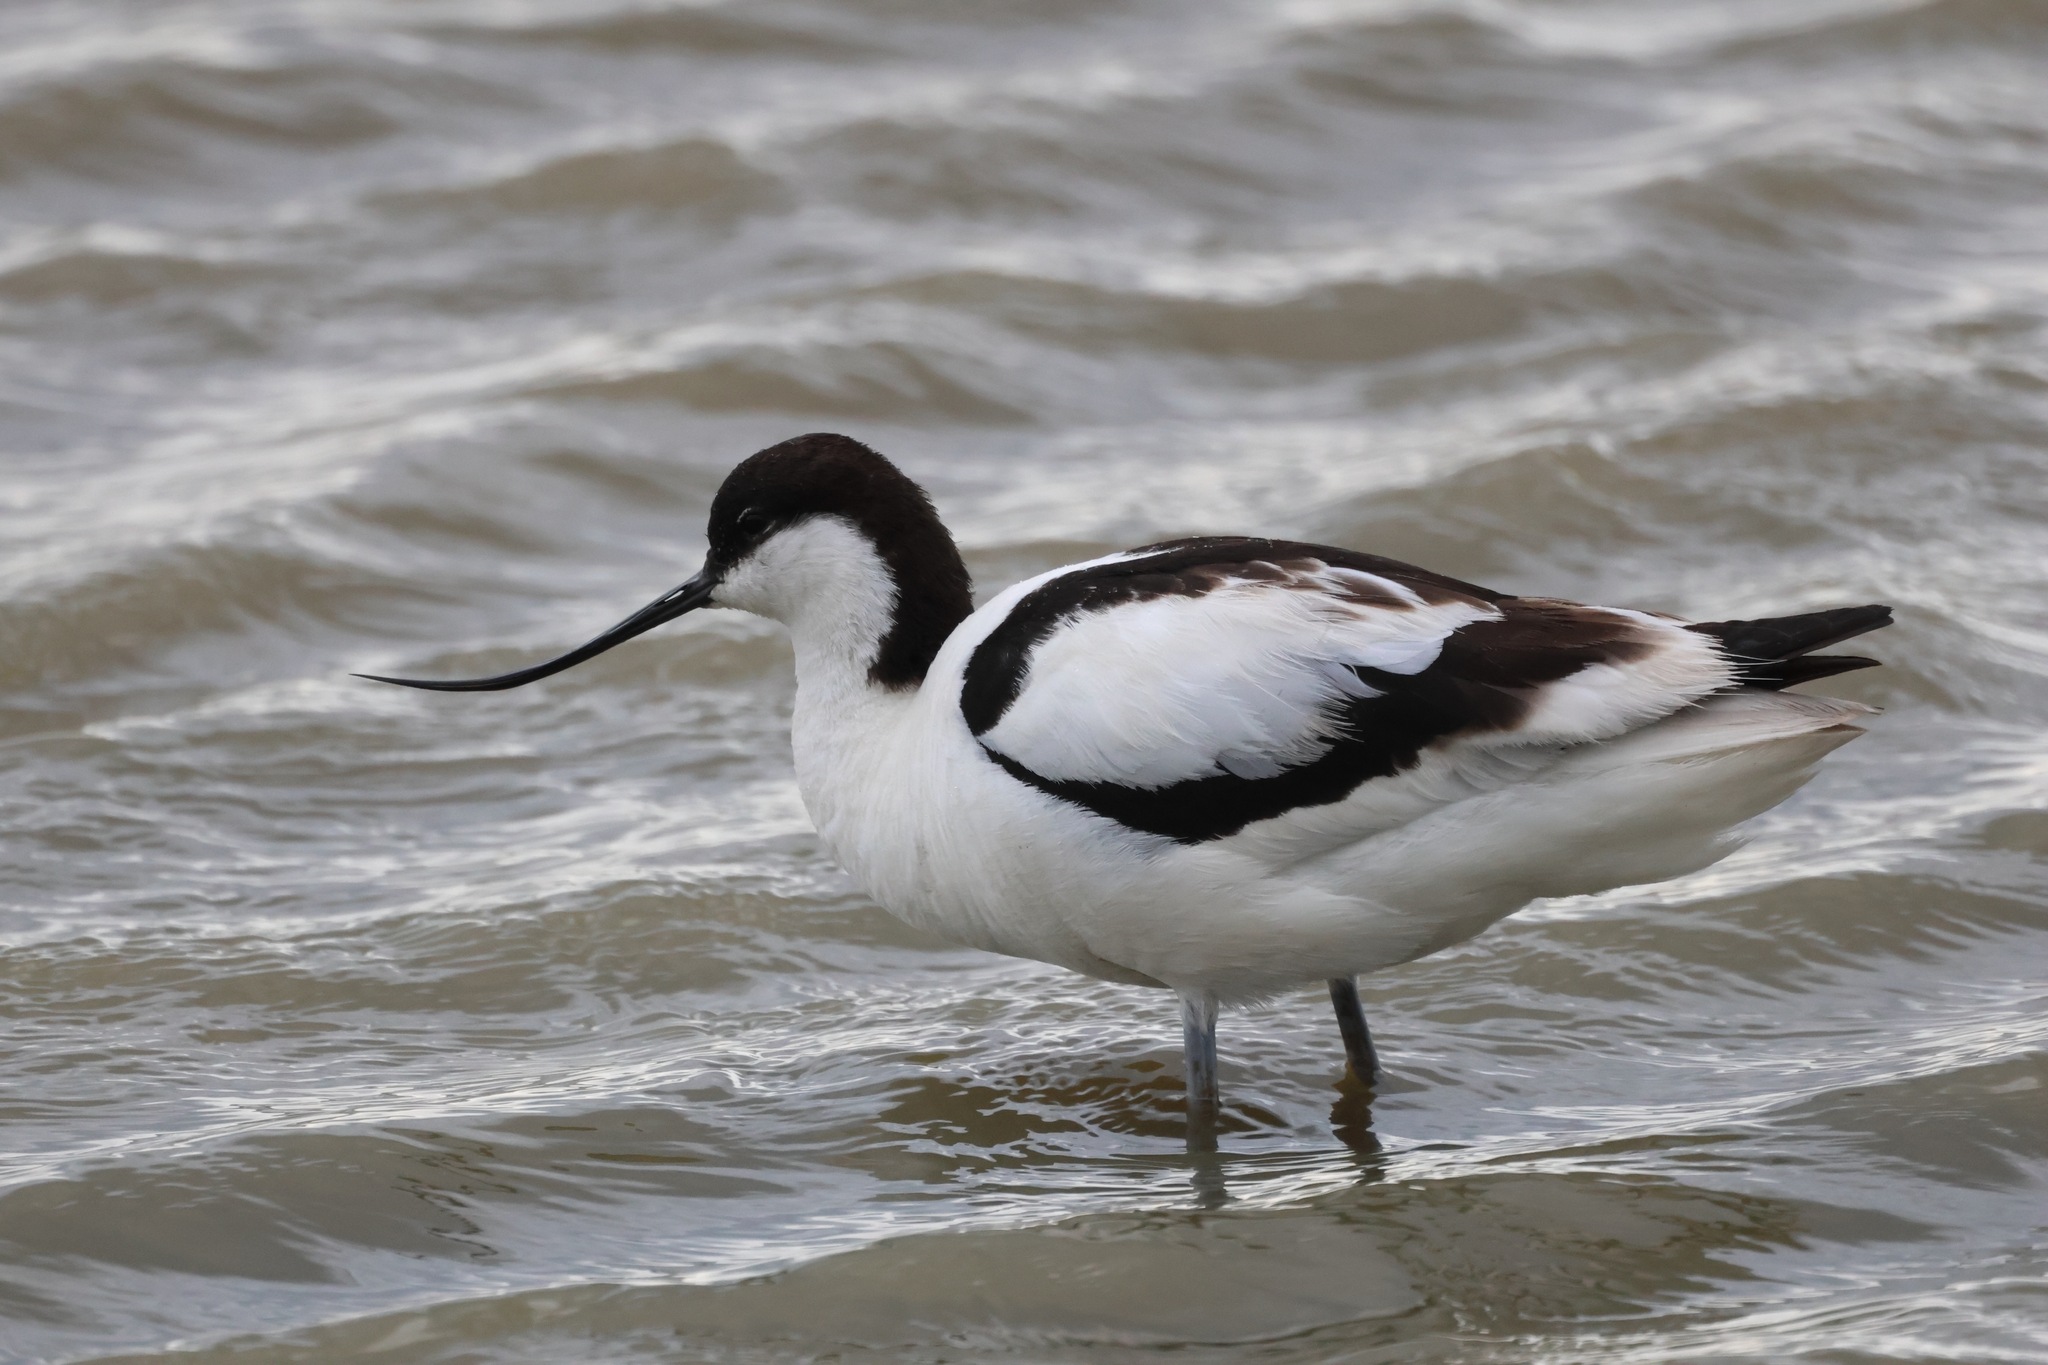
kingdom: Animalia
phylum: Chordata
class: Aves
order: Charadriiformes
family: Recurvirostridae
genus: Recurvirostra
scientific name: Recurvirostra avosetta
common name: Pied avocet
